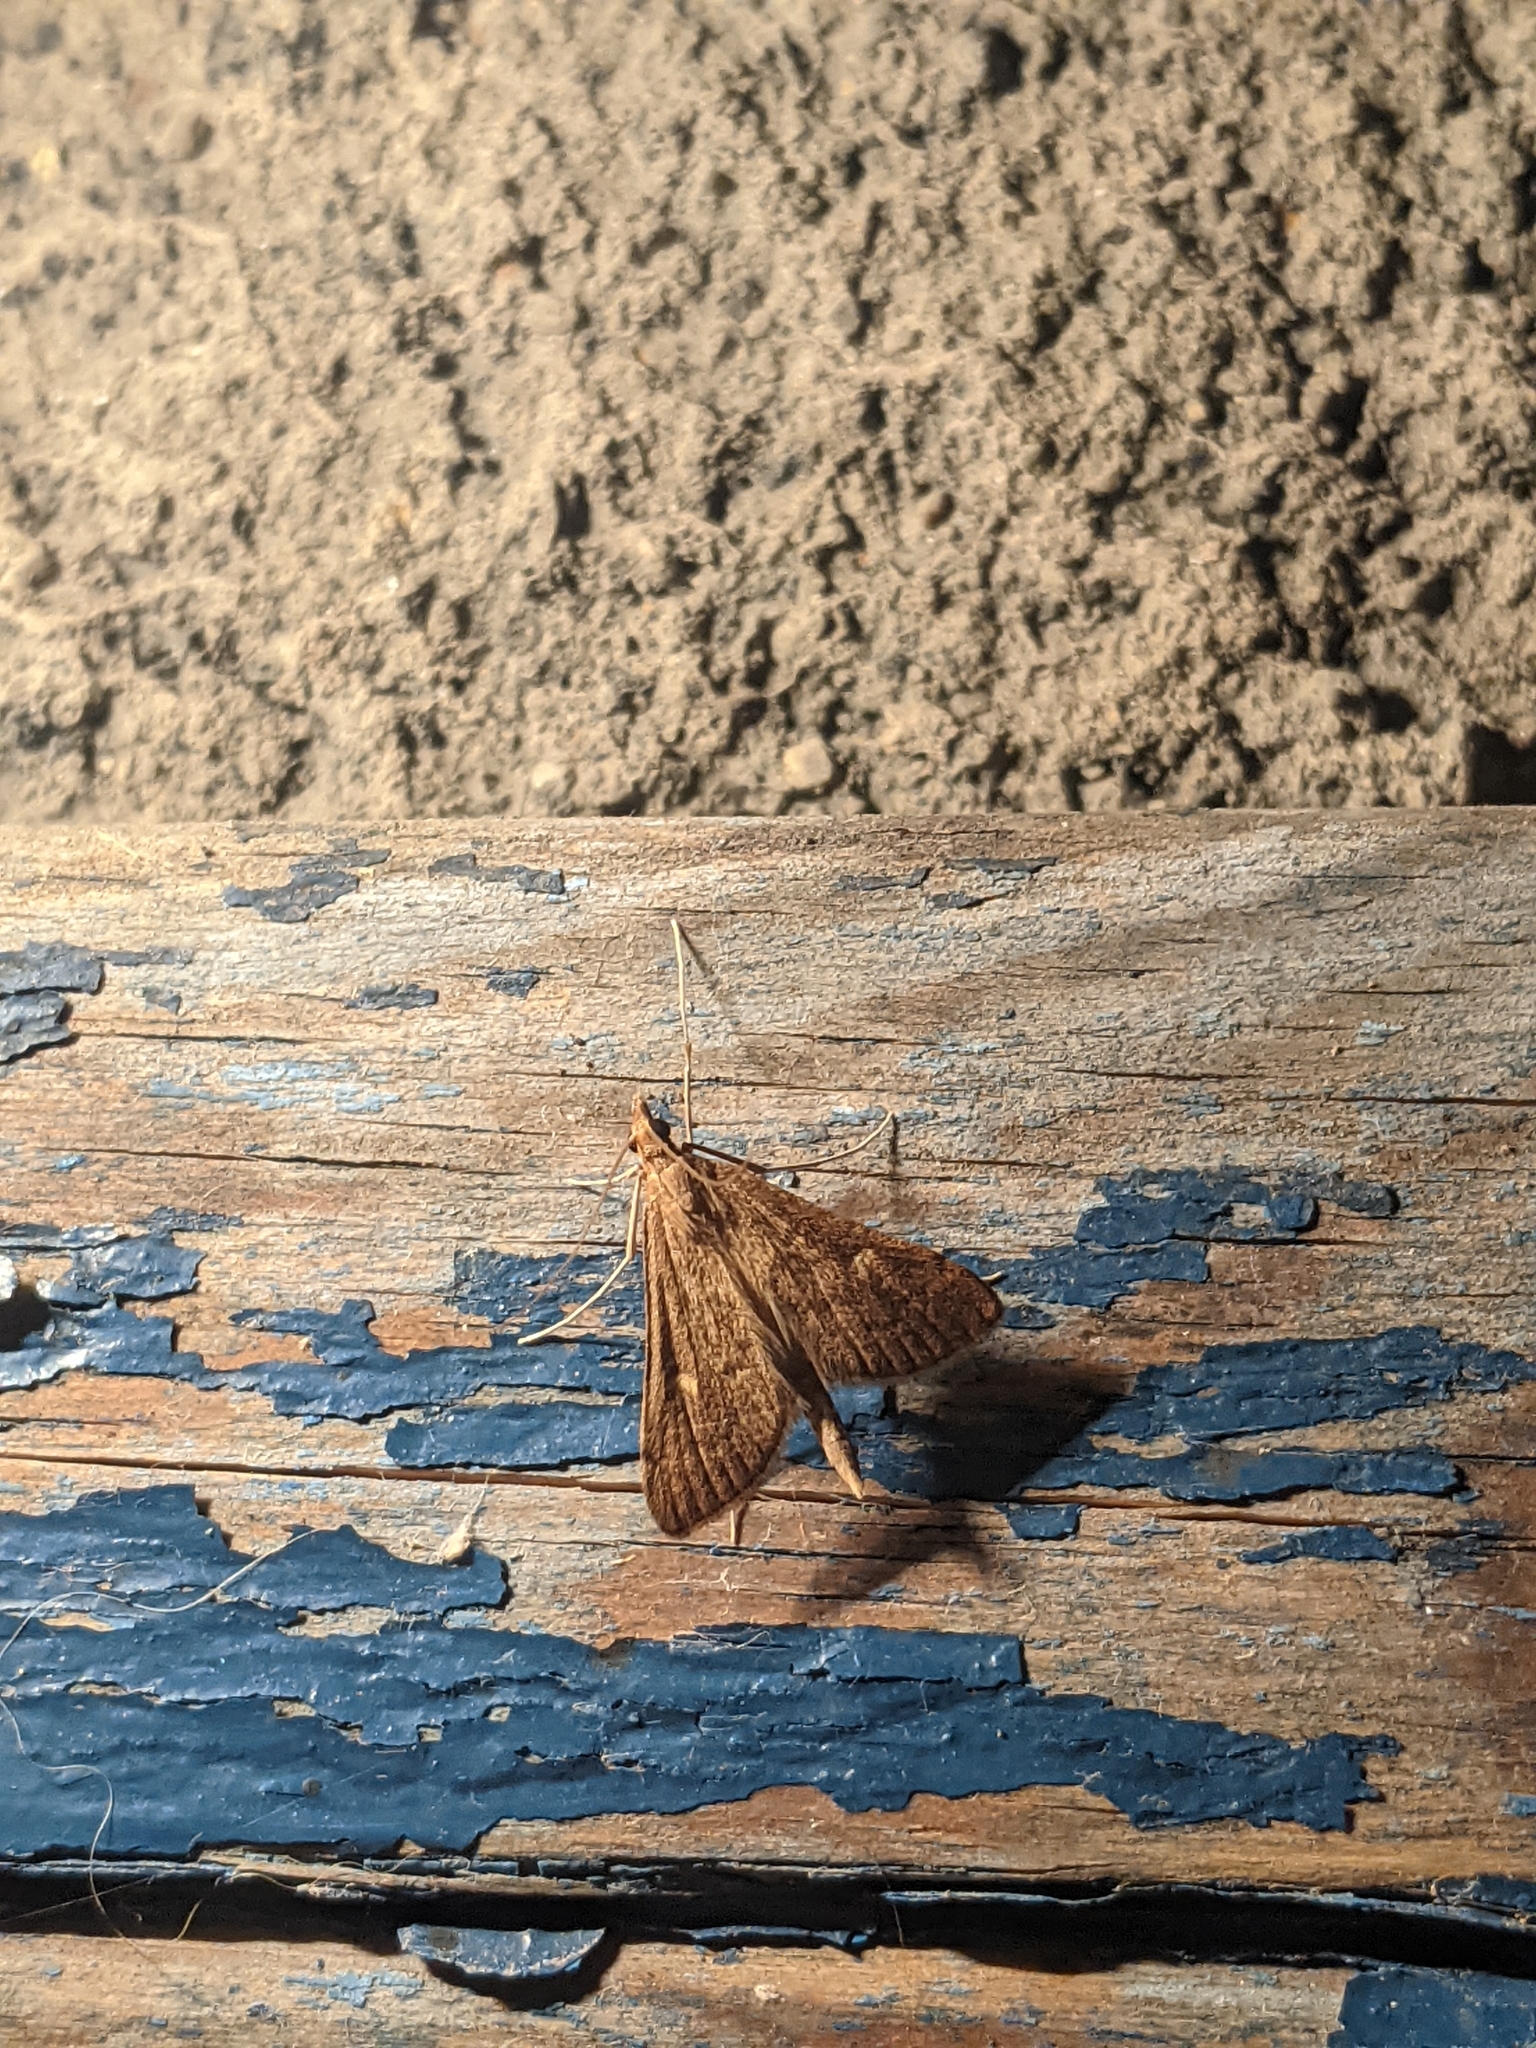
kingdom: Animalia
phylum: Arthropoda
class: Insecta
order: Lepidoptera
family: Crambidae
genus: Stenia
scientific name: Stenia Dolicharthria punctalis
